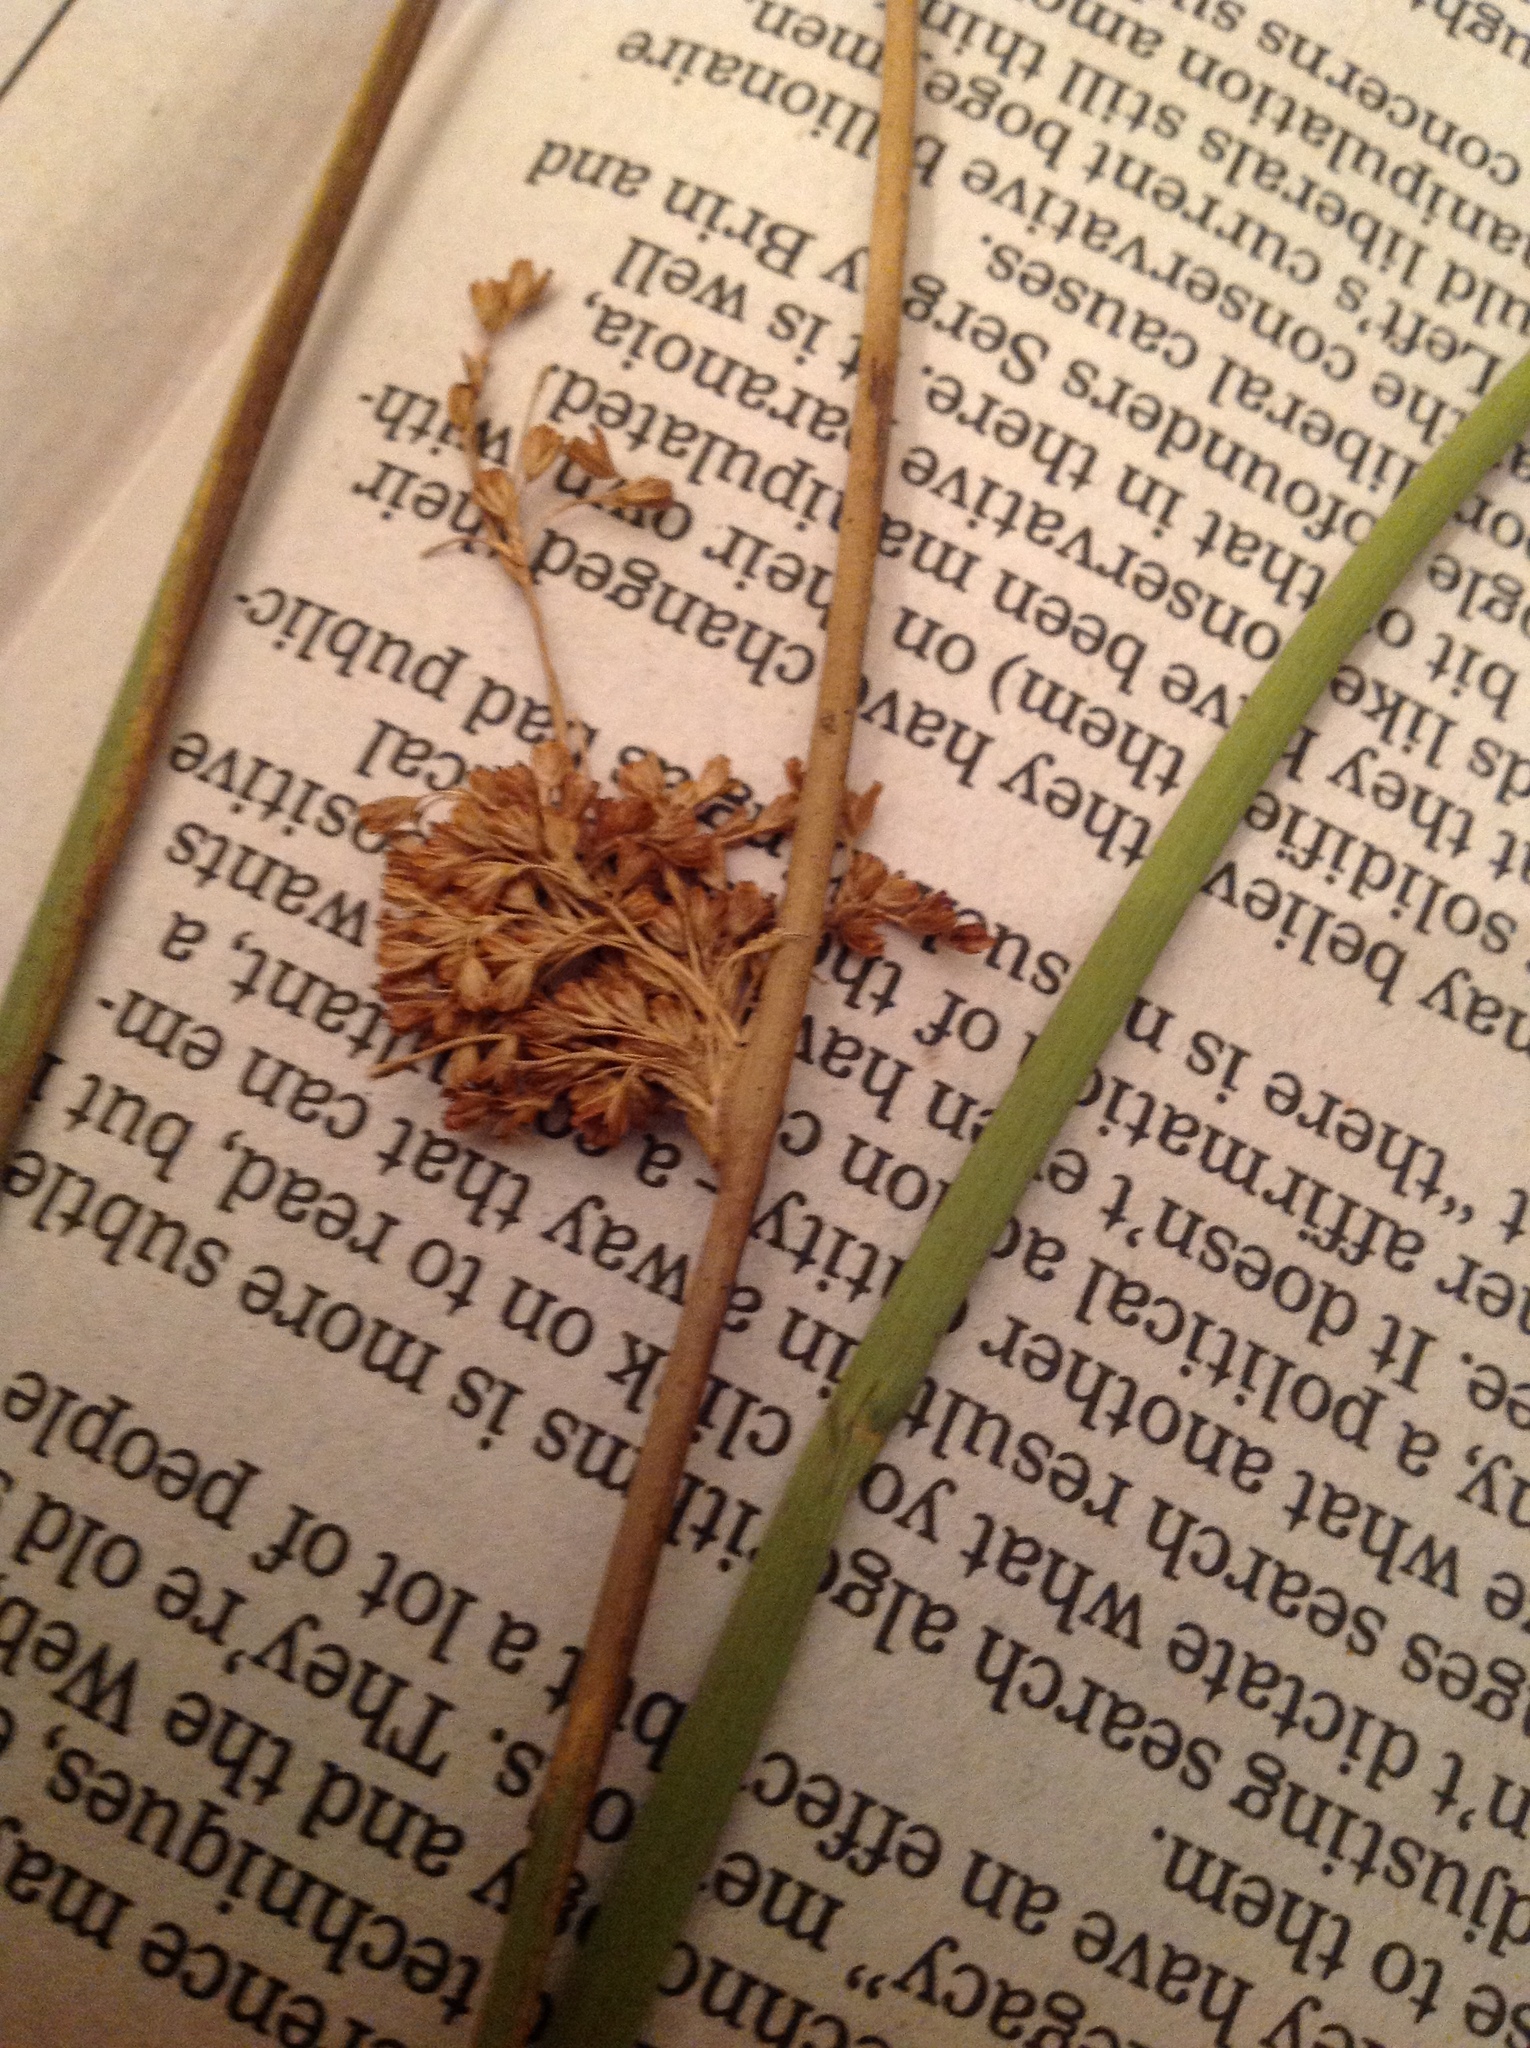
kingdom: Plantae
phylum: Tracheophyta
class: Liliopsida
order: Poales
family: Juncaceae
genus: Juncus
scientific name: Juncus effusus
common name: Soft rush
